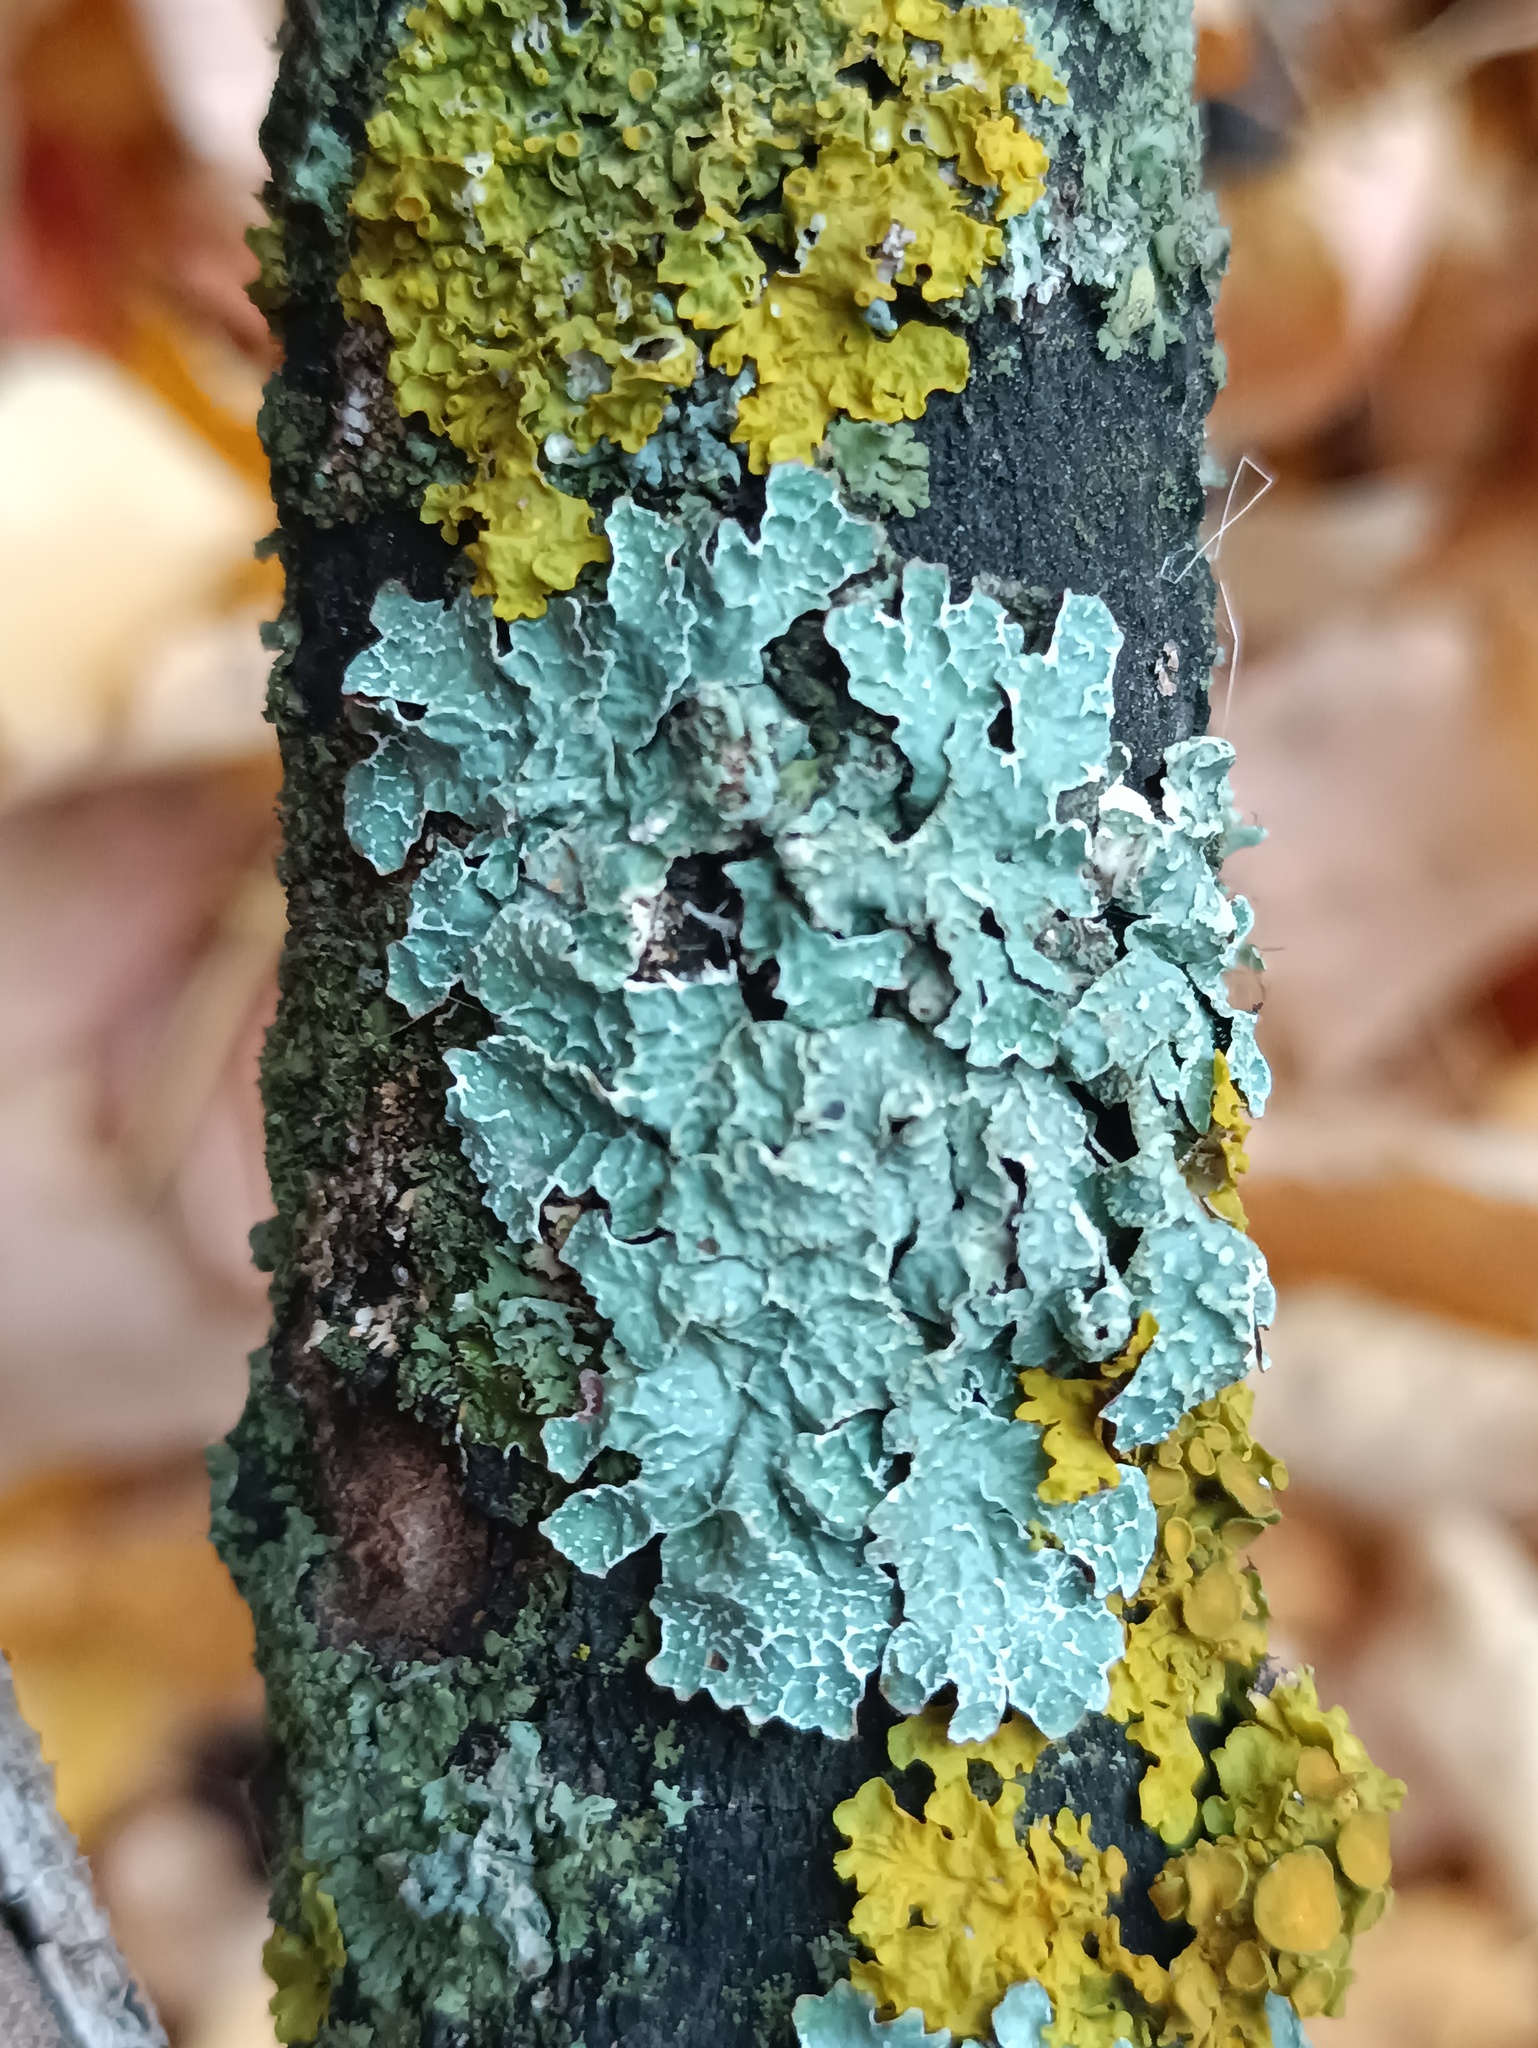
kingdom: Fungi
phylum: Ascomycota
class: Lecanoromycetes
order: Lecanorales
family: Parmeliaceae
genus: Parmelia
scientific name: Parmelia sulcata
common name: Netted shield lichen
